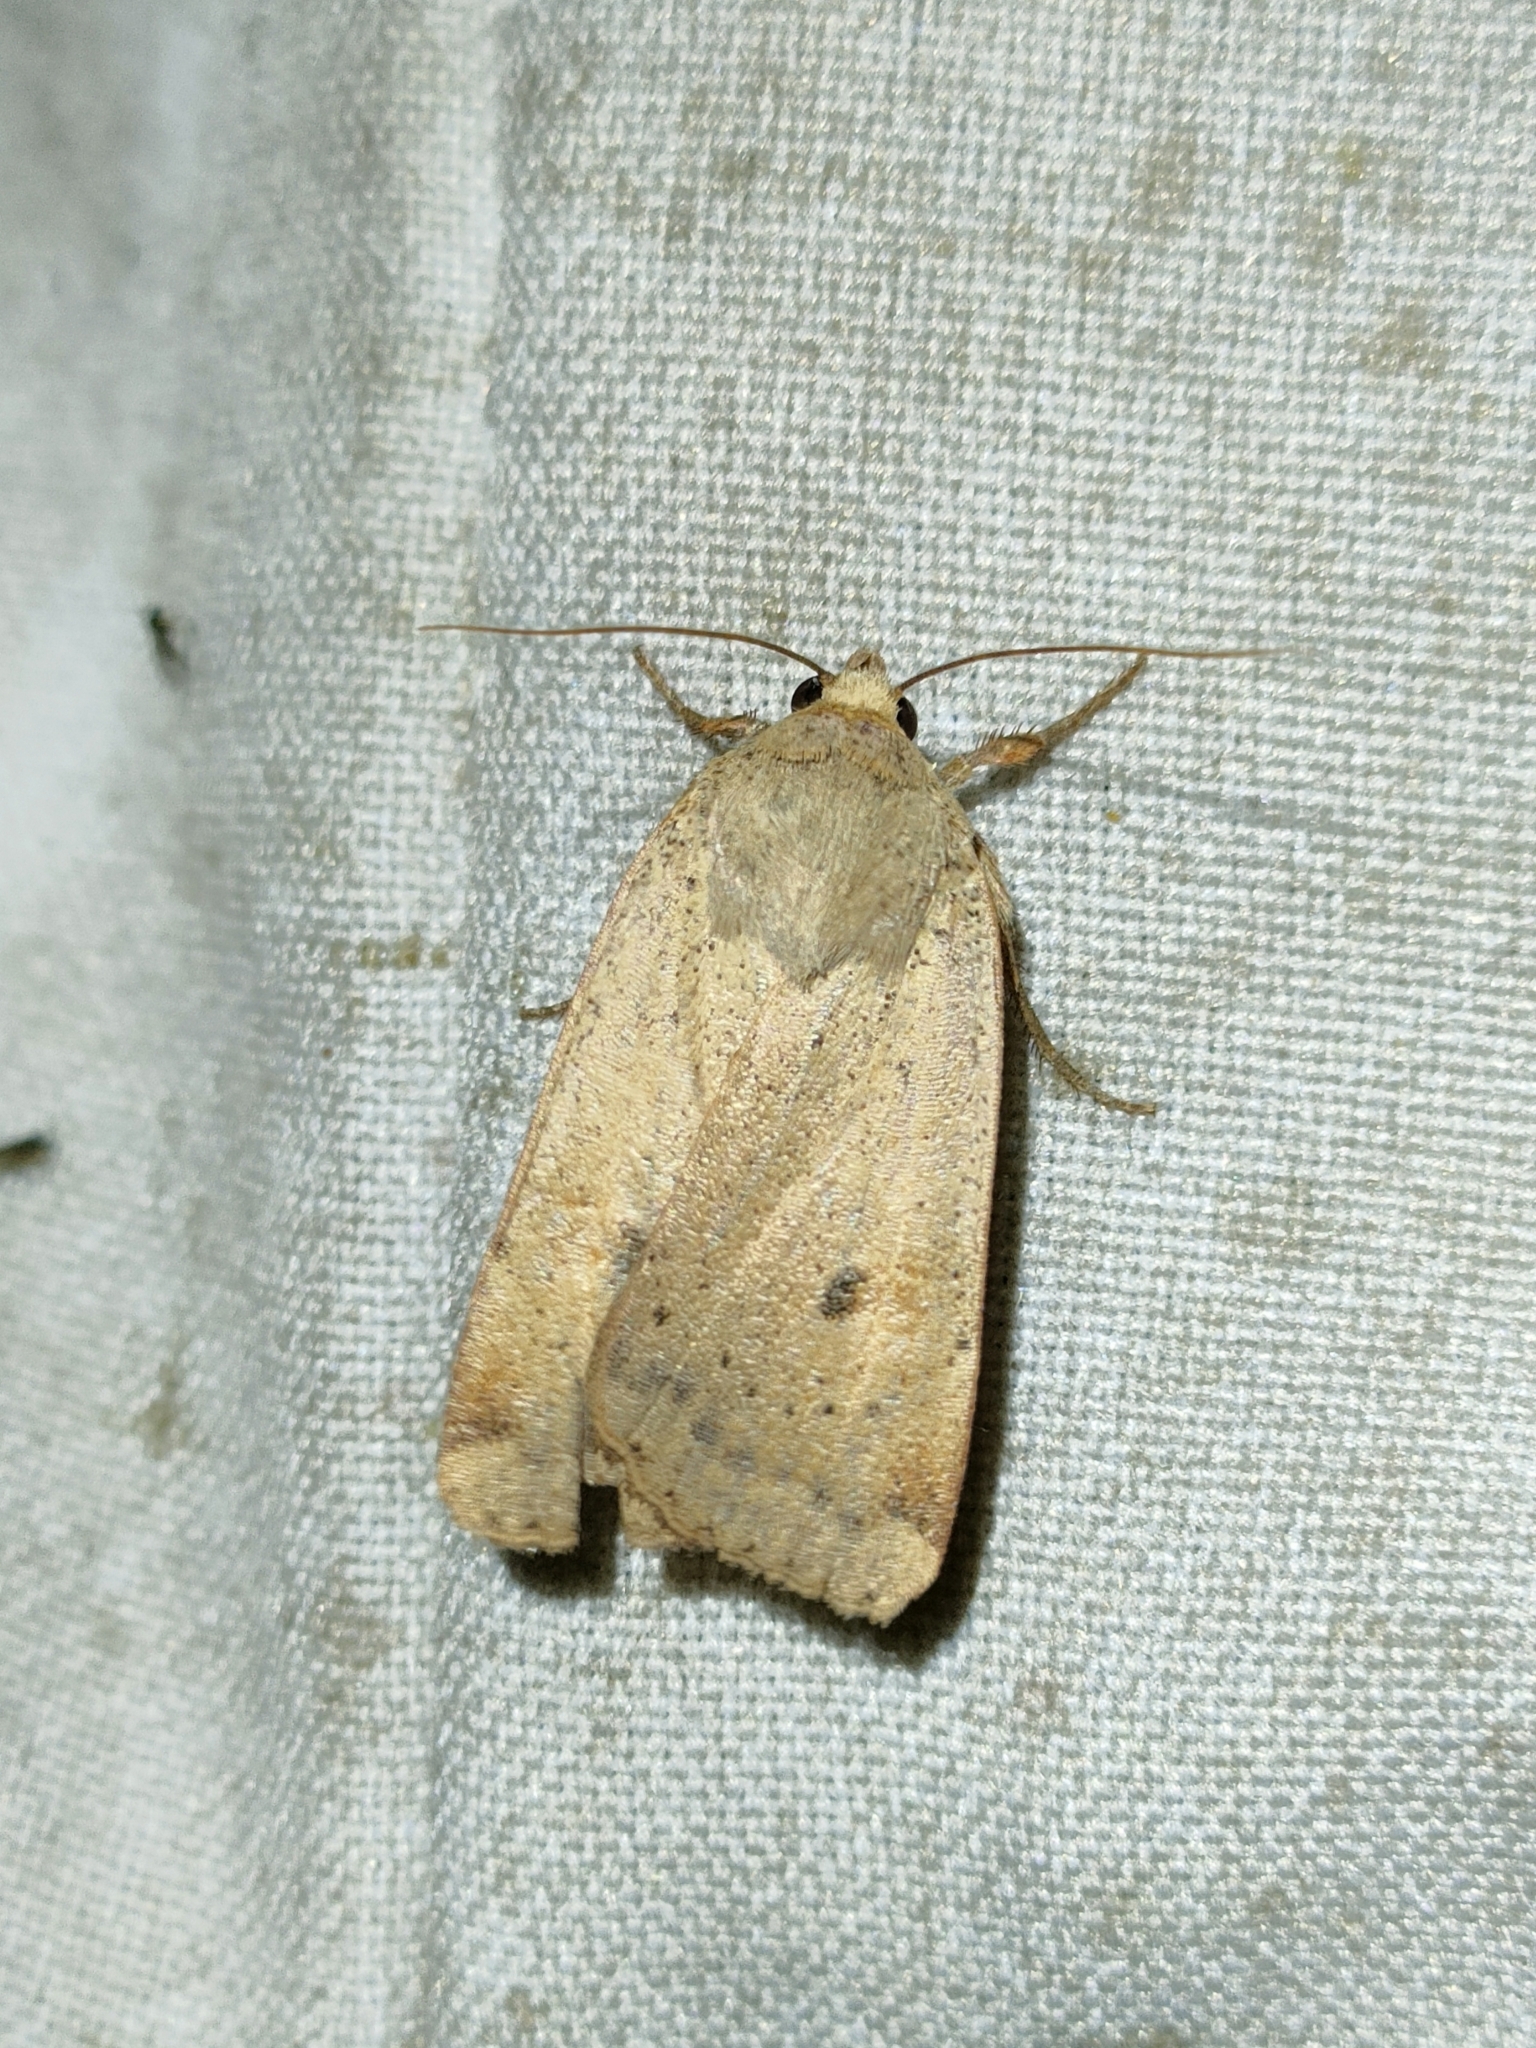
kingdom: Animalia
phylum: Arthropoda
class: Insecta
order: Lepidoptera
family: Noctuidae
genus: Noctua
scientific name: Noctua comes
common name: Lesser yellow underwing
